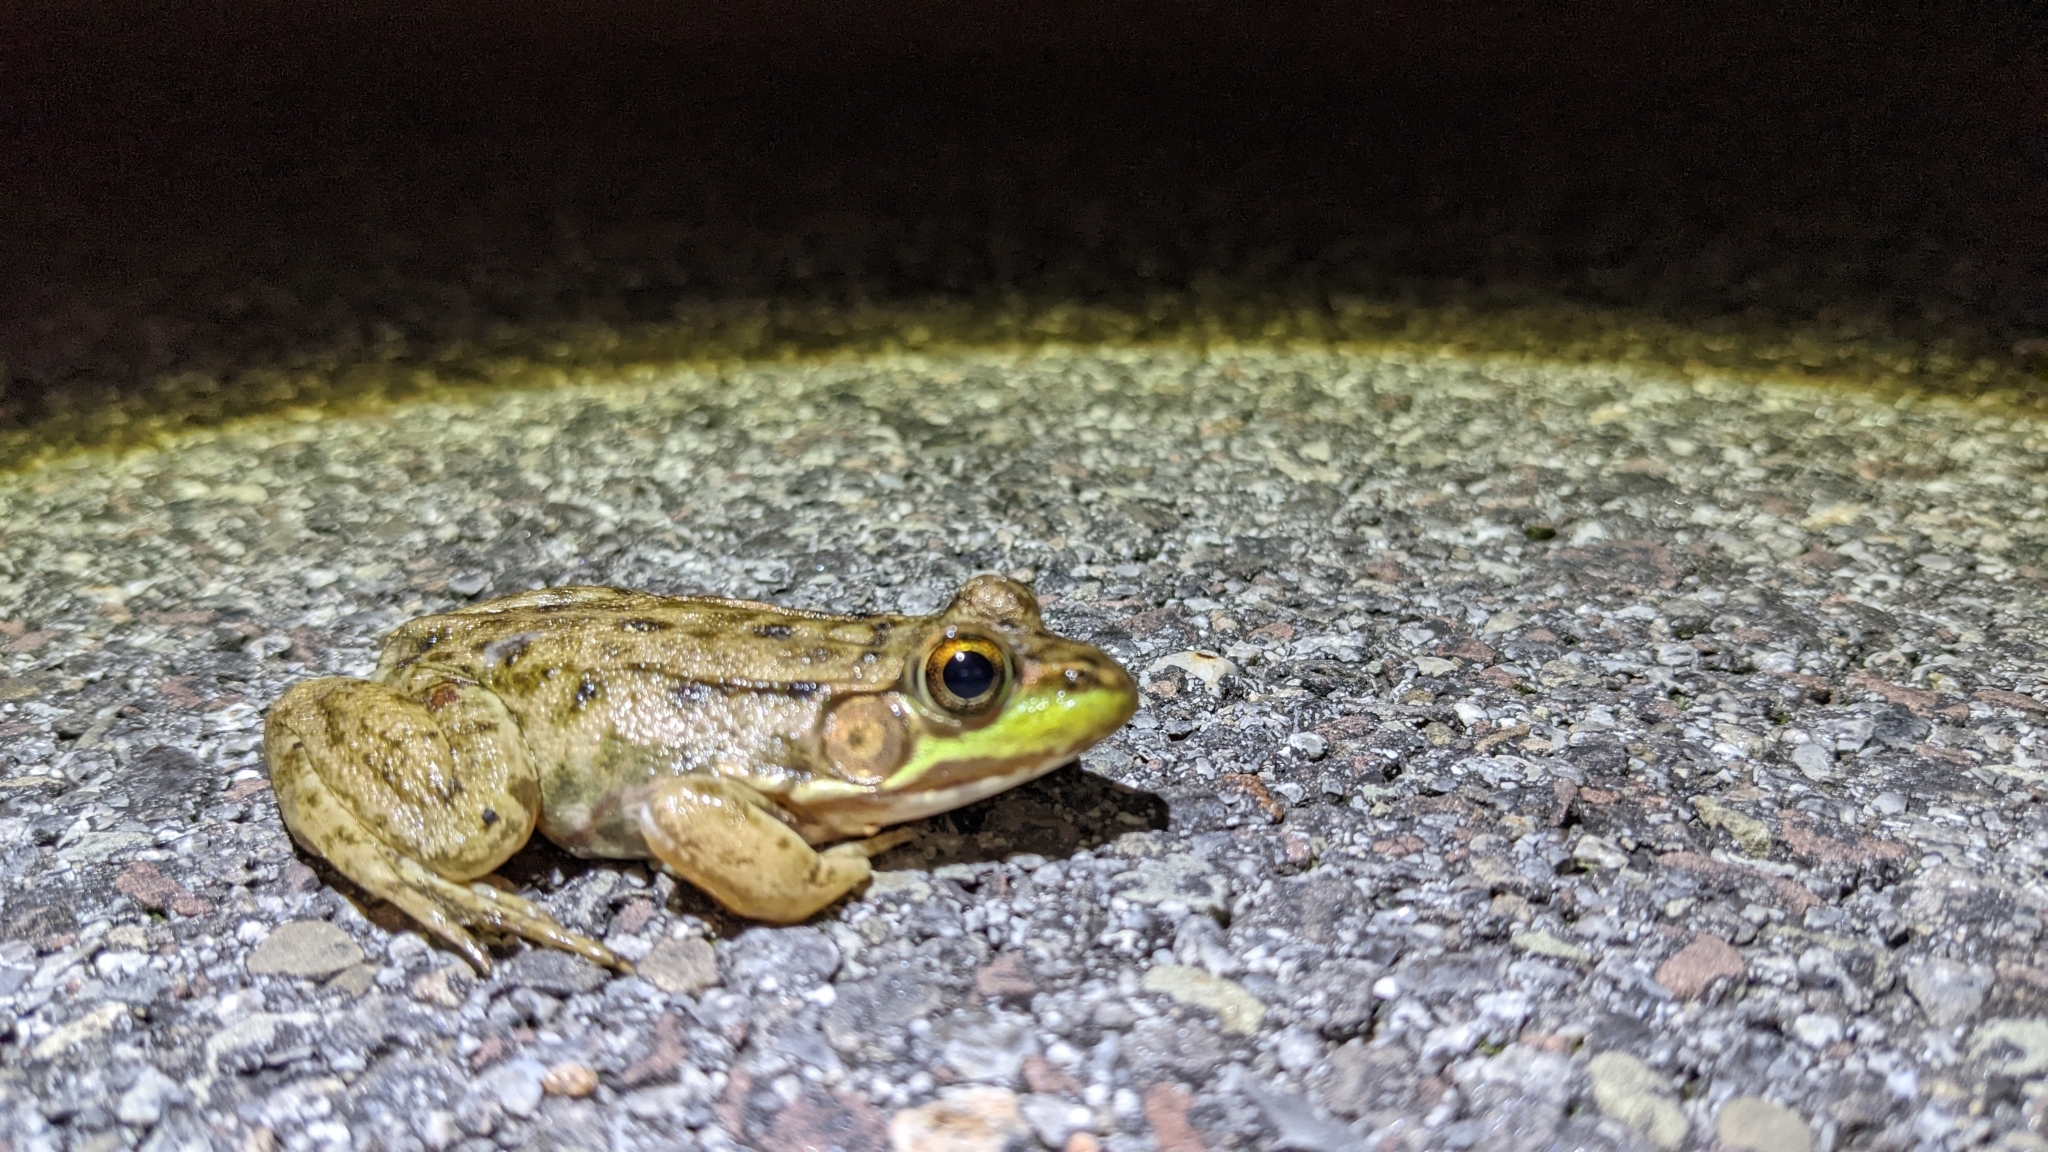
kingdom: Animalia
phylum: Chordata
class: Amphibia
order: Anura
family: Ranidae
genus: Lithobates
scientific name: Lithobates clamitans
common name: Green frog
